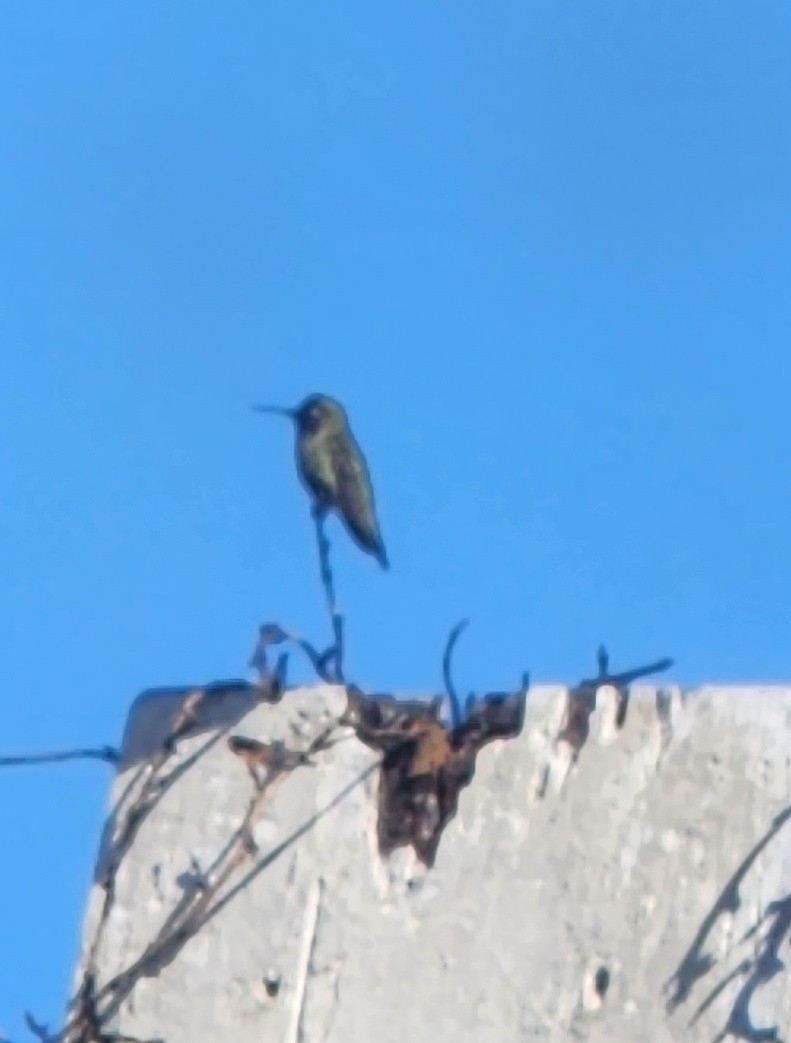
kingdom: Animalia
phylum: Chordata
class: Aves
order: Apodiformes
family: Trochilidae
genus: Calypte
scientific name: Calypte anna
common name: Anna's hummingbird
